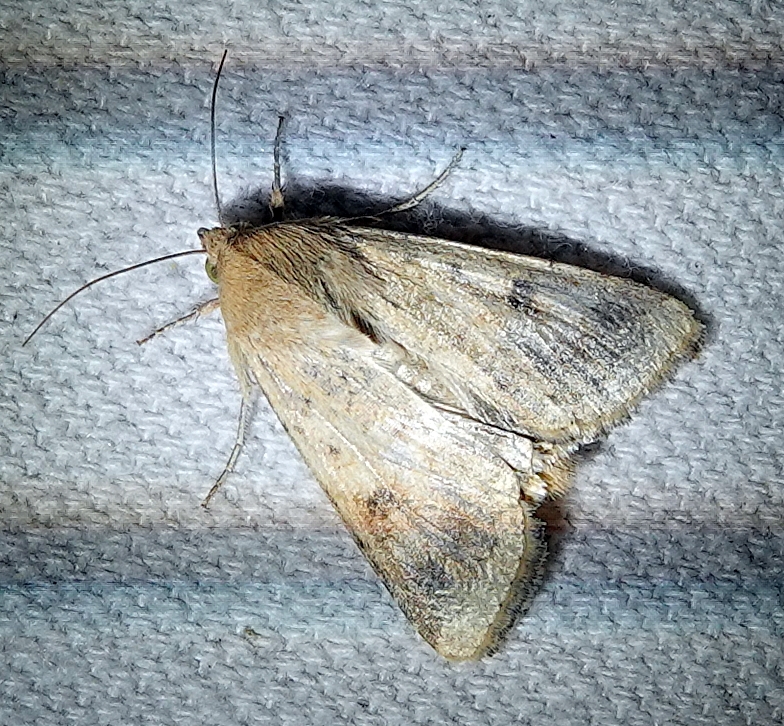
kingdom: Animalia
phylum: Arthropoda
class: Insecta
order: Lepidoptera
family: Noctuidae
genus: Helicoverpa
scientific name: Helicoverpa zea
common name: Bollworm
